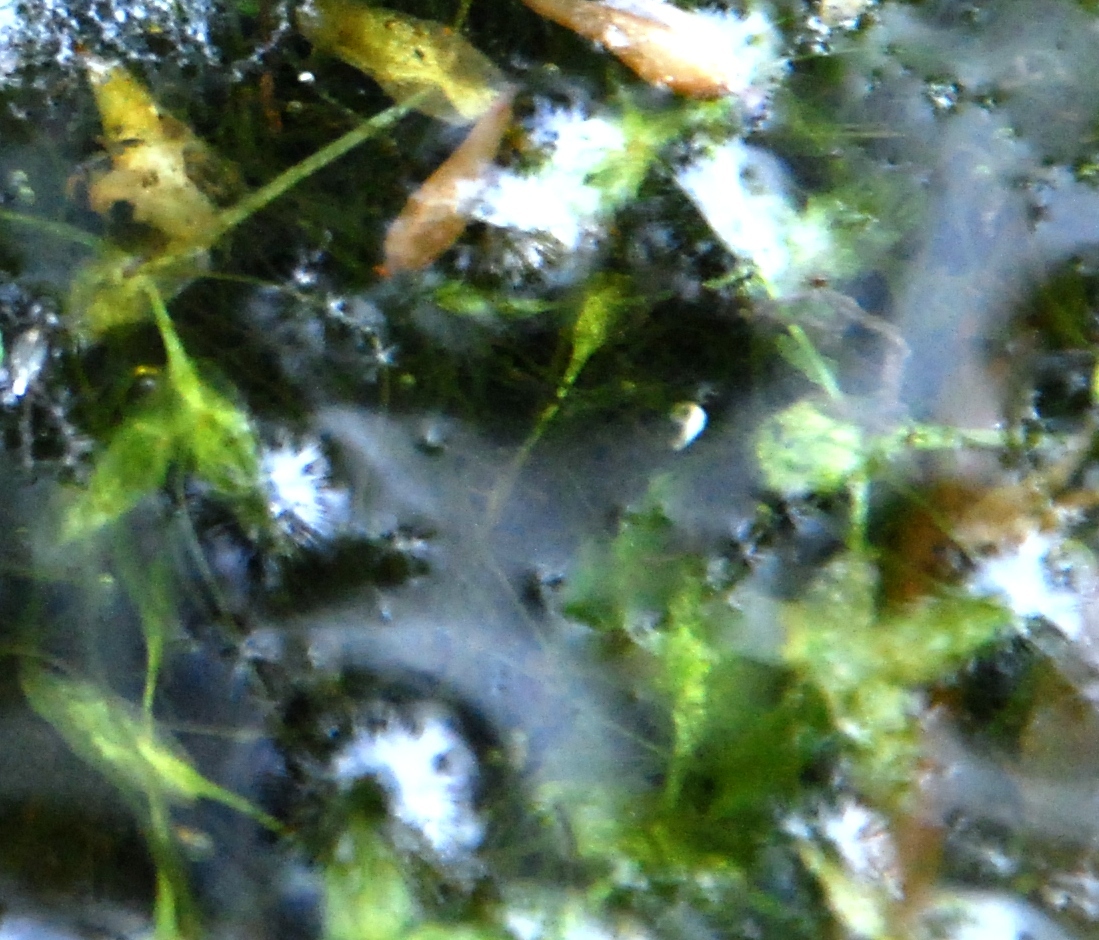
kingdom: Plantae
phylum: Tracheophyta
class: Liliopsida
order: Alismatales
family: Araceae
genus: Lemna
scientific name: Lemna trisulca
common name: Ivy-leaved duckweed
